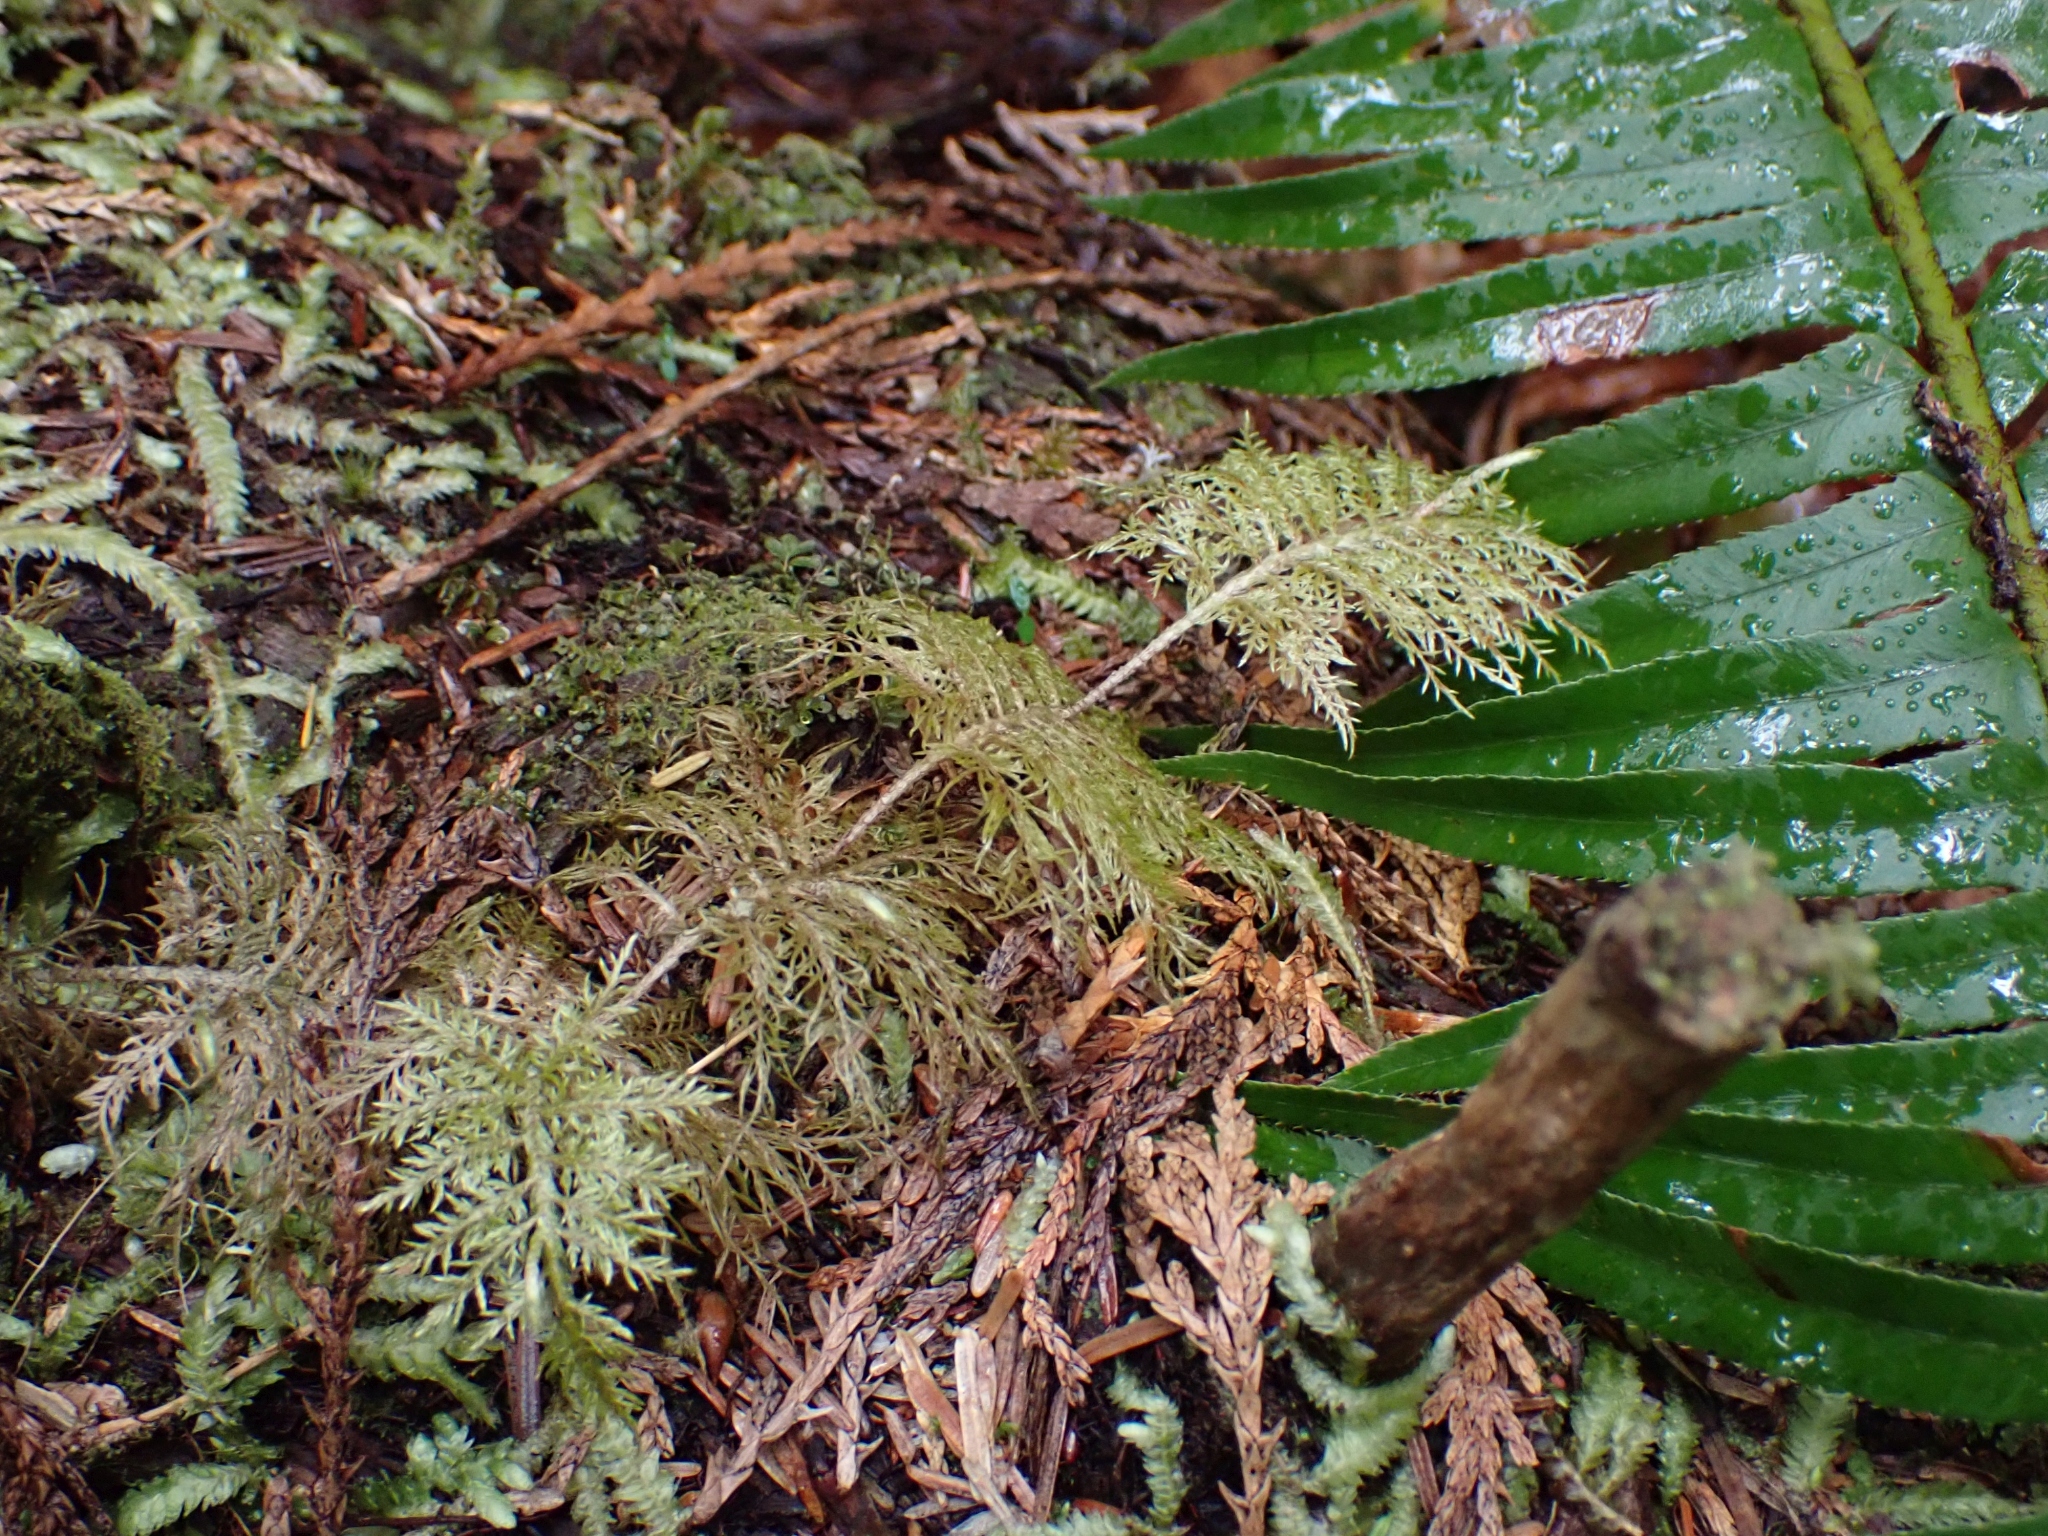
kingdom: Plantae
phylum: Bryophyta
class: Bryopsida
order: Hypnales
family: Hylocomiaceae
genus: Hylocomium
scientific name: Hylocomium splendens
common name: Stairstep moss
